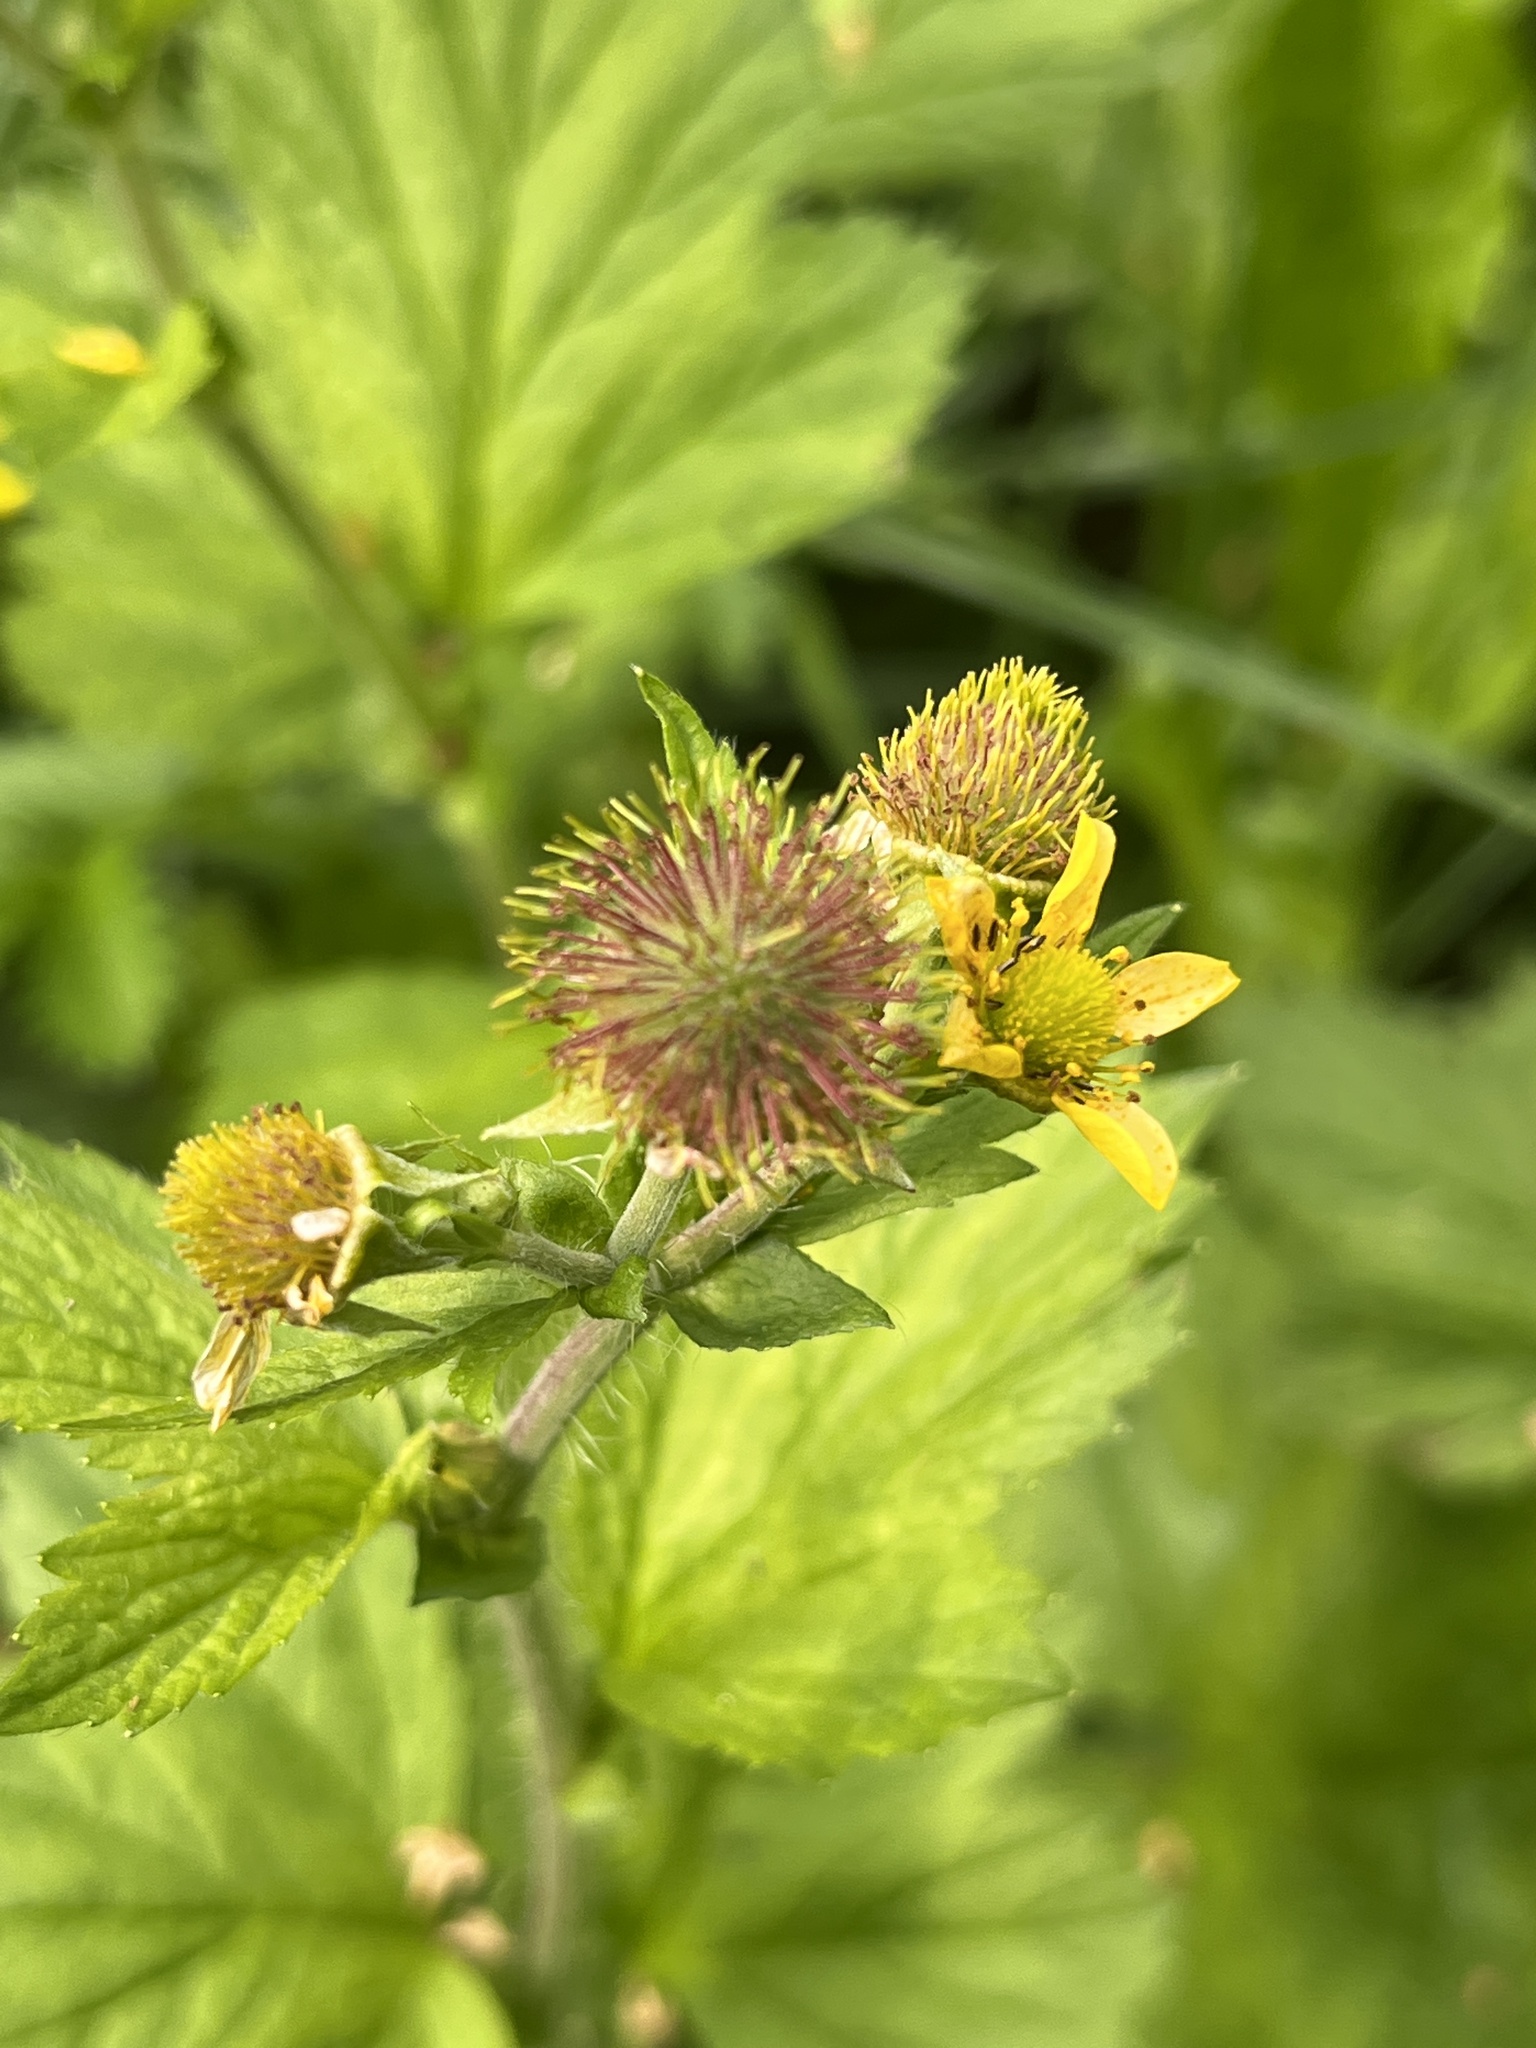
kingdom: Plantae
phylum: Tracheophyta
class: Magnoliopsida
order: Rosales
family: Rosaceae
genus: Geum
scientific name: Geum macrophyllum
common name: Large-leaved avens
